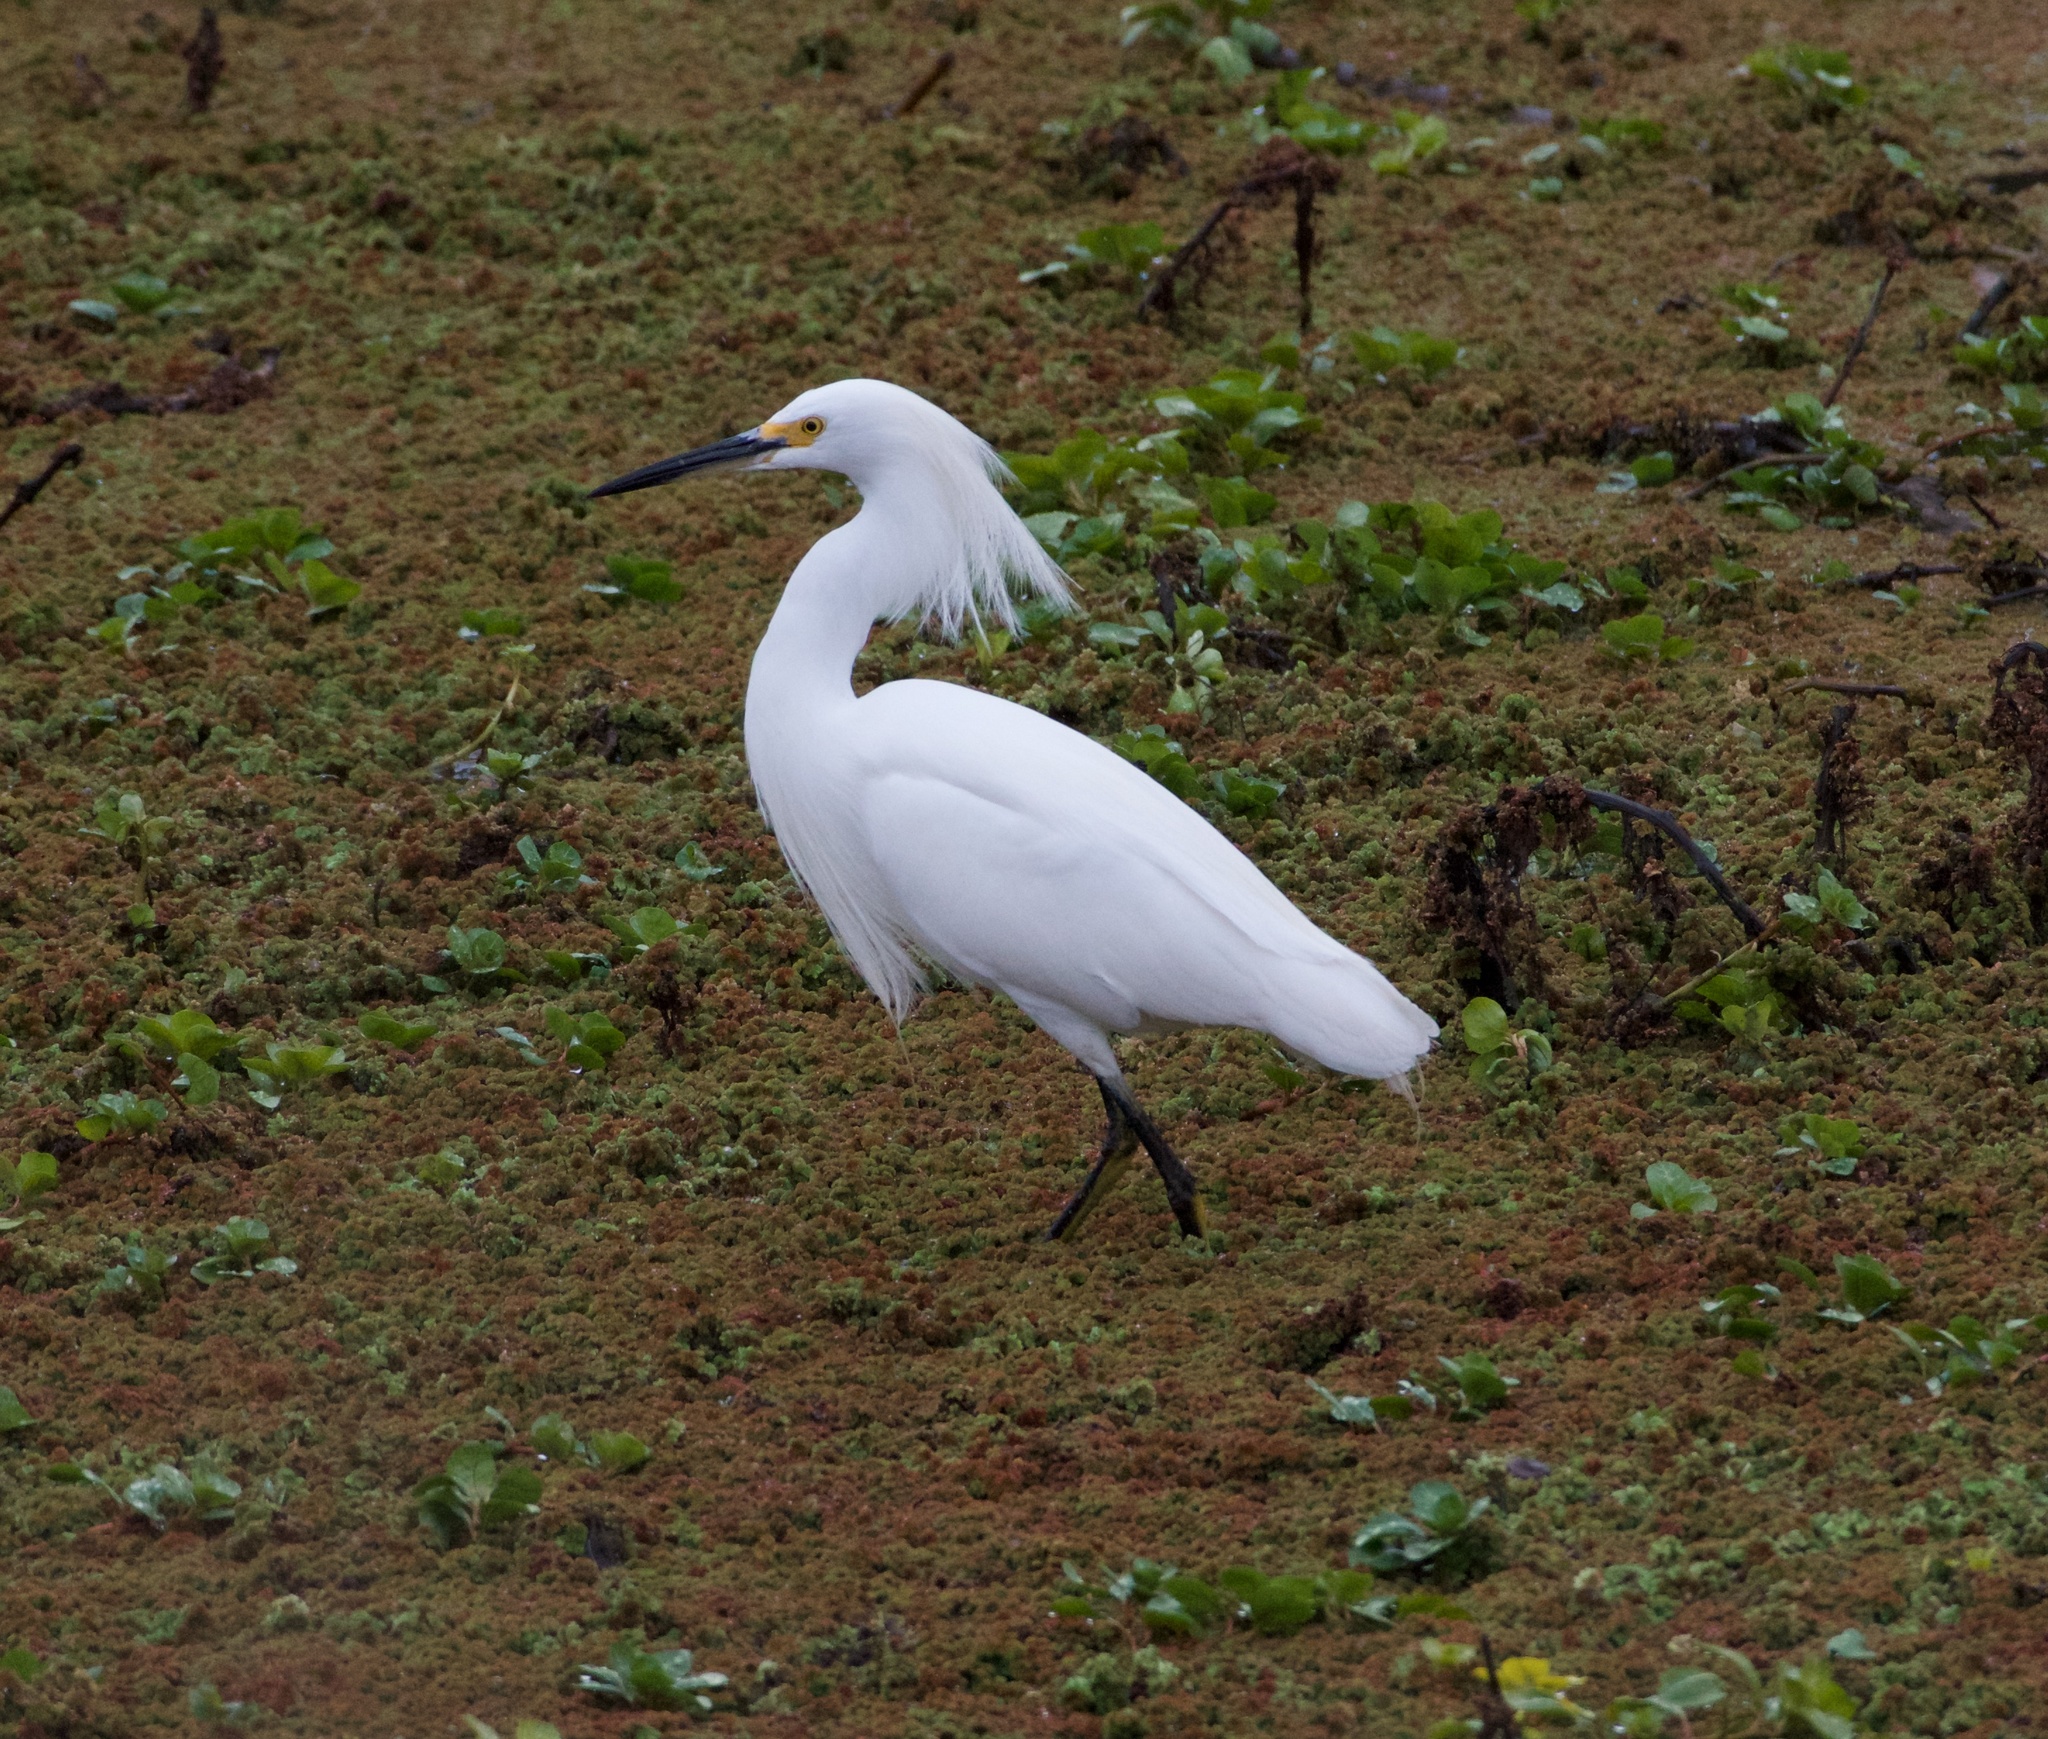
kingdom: Animalia
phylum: Chordata
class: Aves
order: Pelecaniformes
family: Ardeidae
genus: Egretta
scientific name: Egretta thula
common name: Snowy egret
